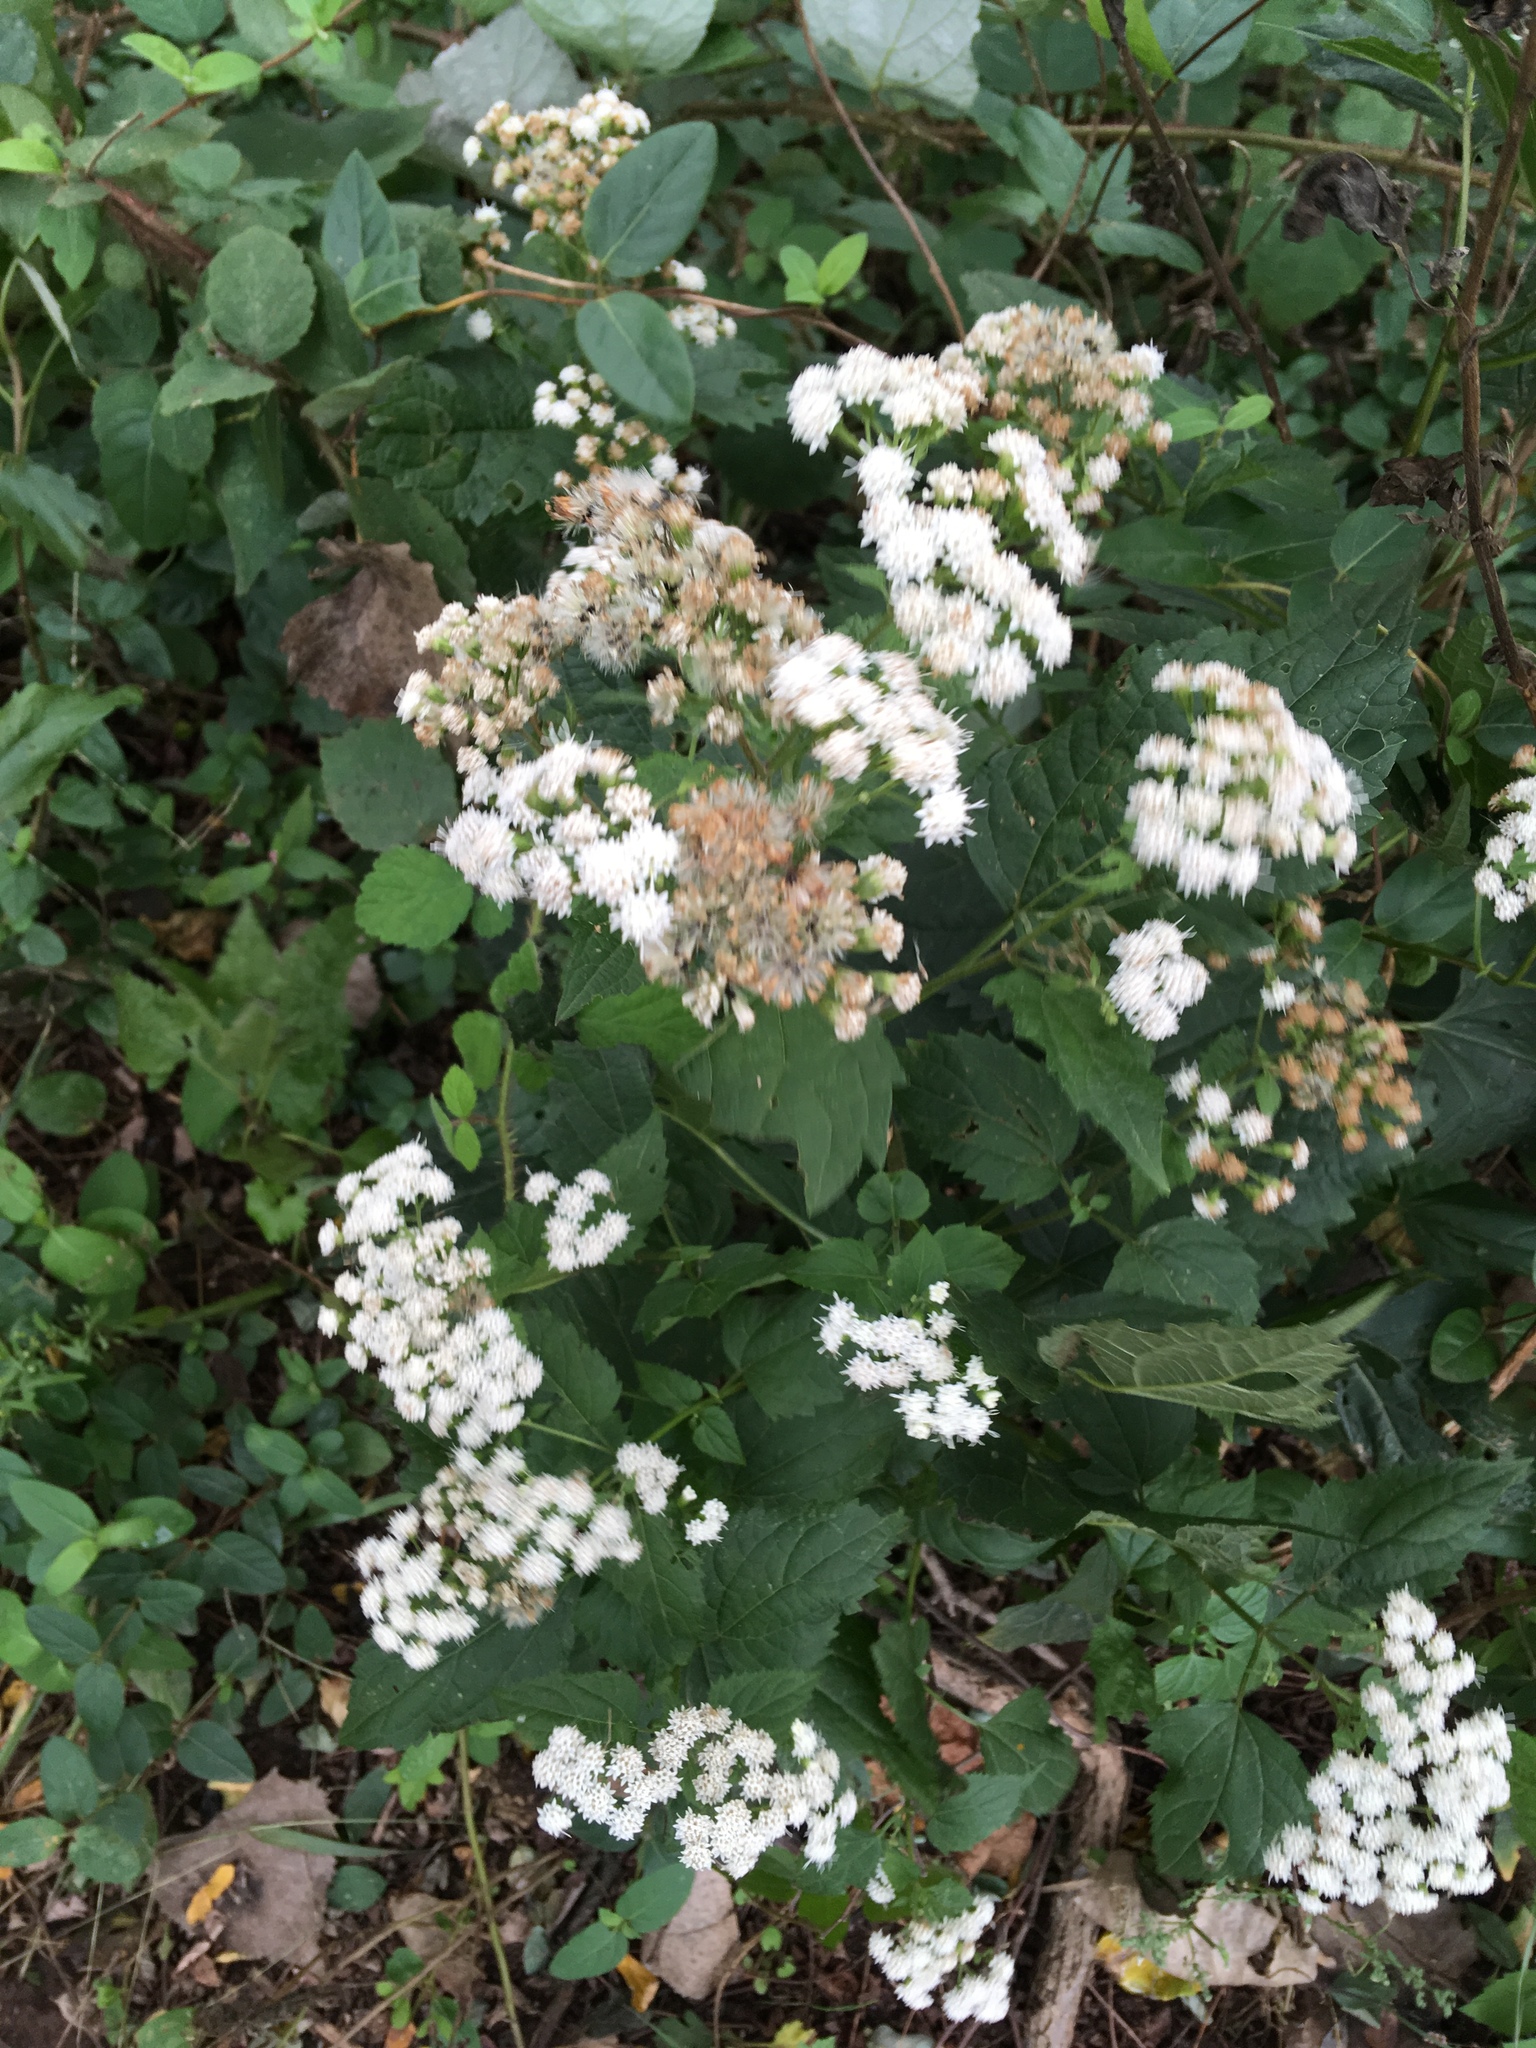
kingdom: Plantae
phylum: Tracheophyta
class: Magnoliopsida
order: Asterales
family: Asteraceae
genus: Ageratina
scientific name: Ageratina altissima
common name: White snakeroot
